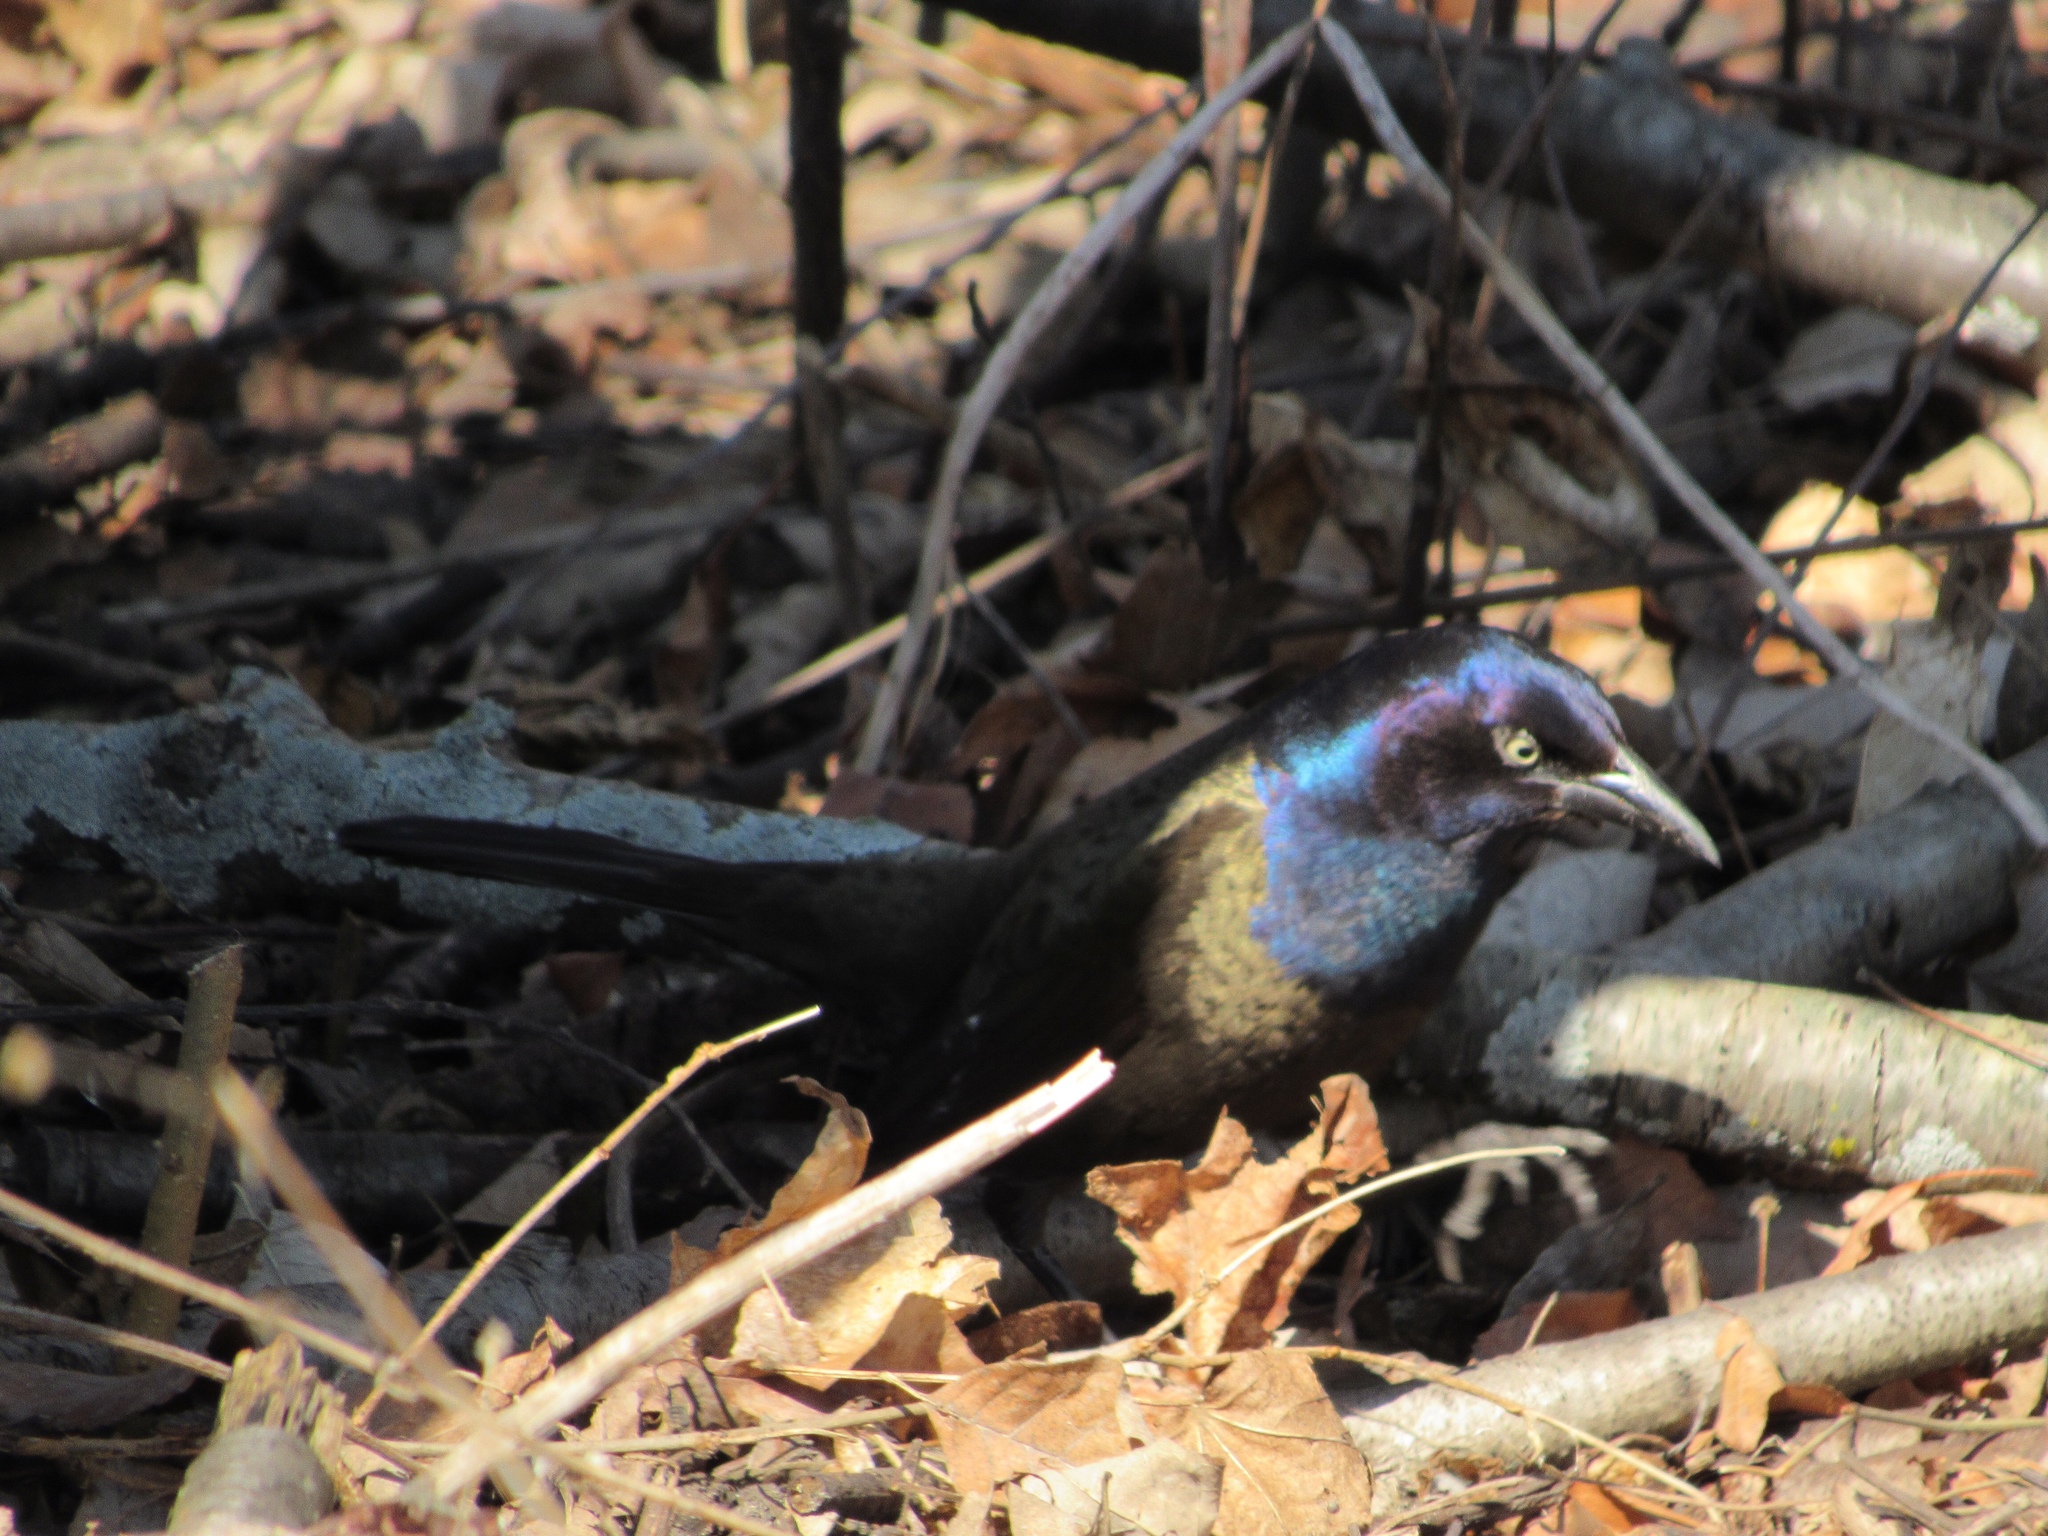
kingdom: Animalia
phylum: Chordata
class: Aves
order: Passeriformes
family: Icteridae
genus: Quiscalus
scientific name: Quiscalus quiscula
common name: Common grackle
